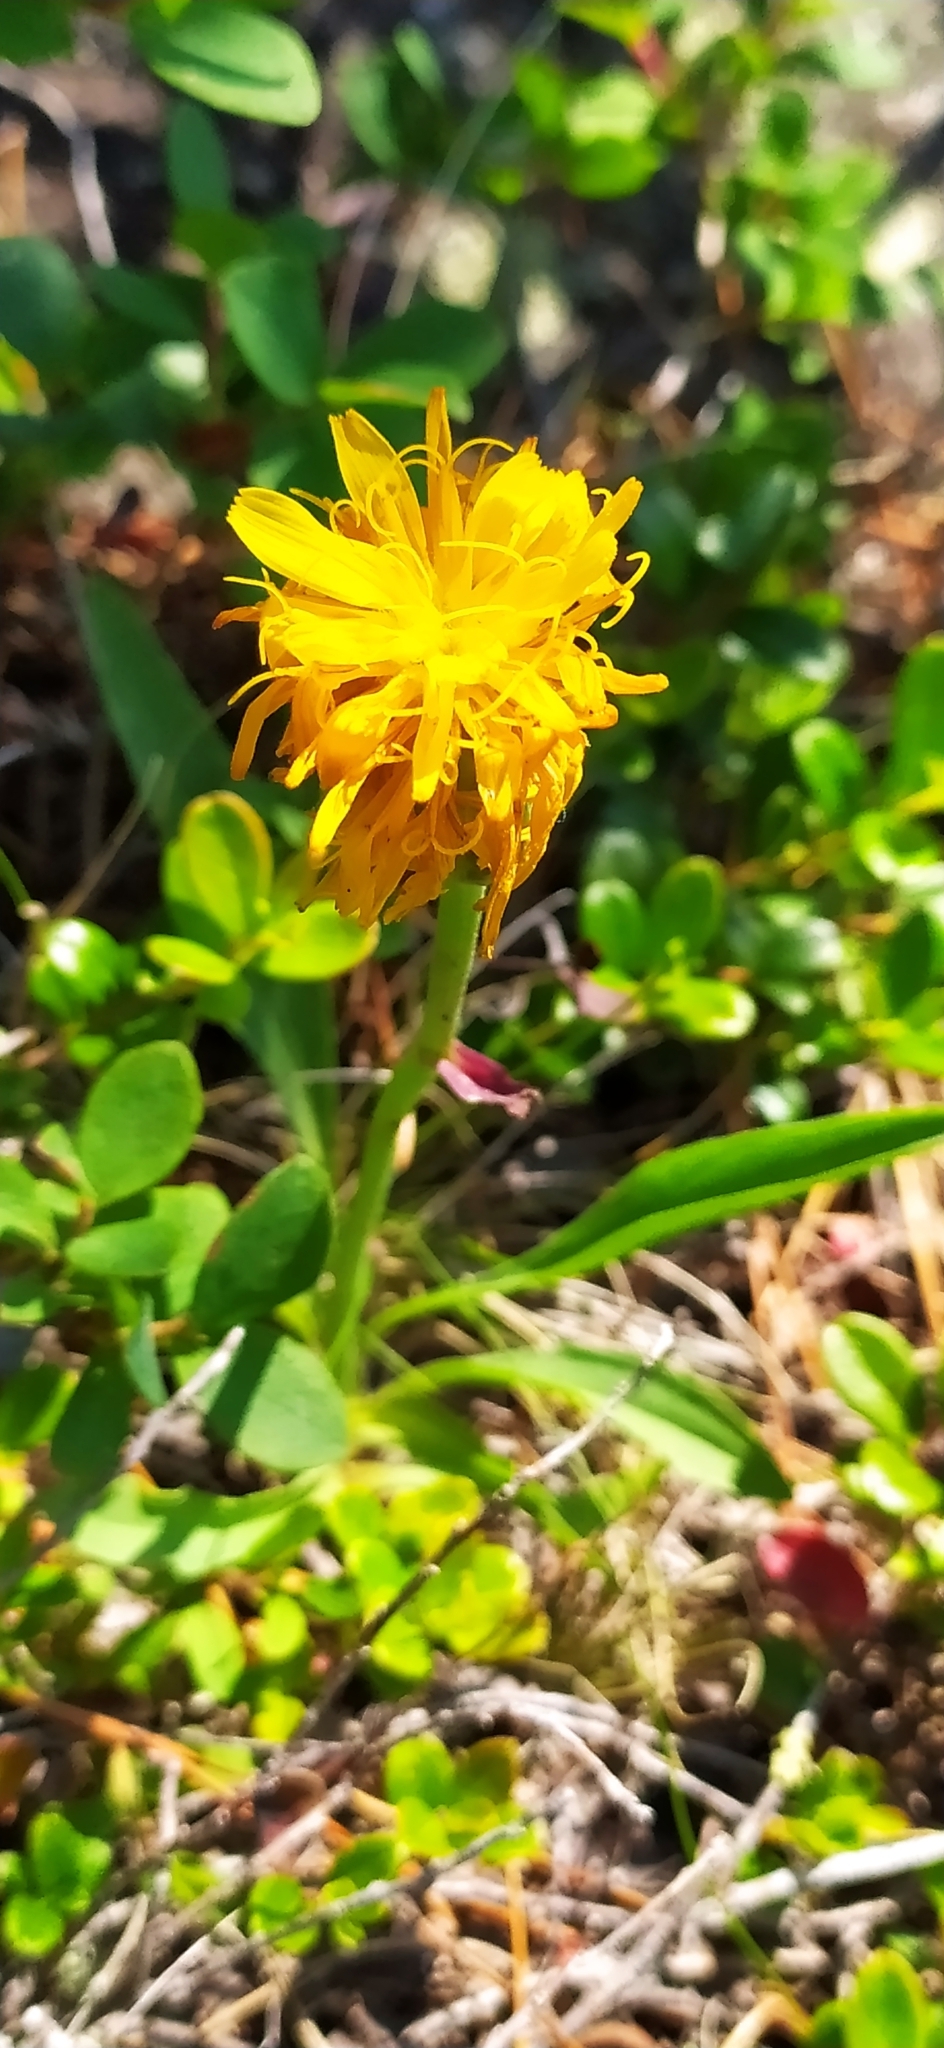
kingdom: Plantae
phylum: Tracheophyta
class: Magnoliopsida
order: Asterales
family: Asteraceae
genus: Scorzonera
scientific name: Scorzonera glabra
